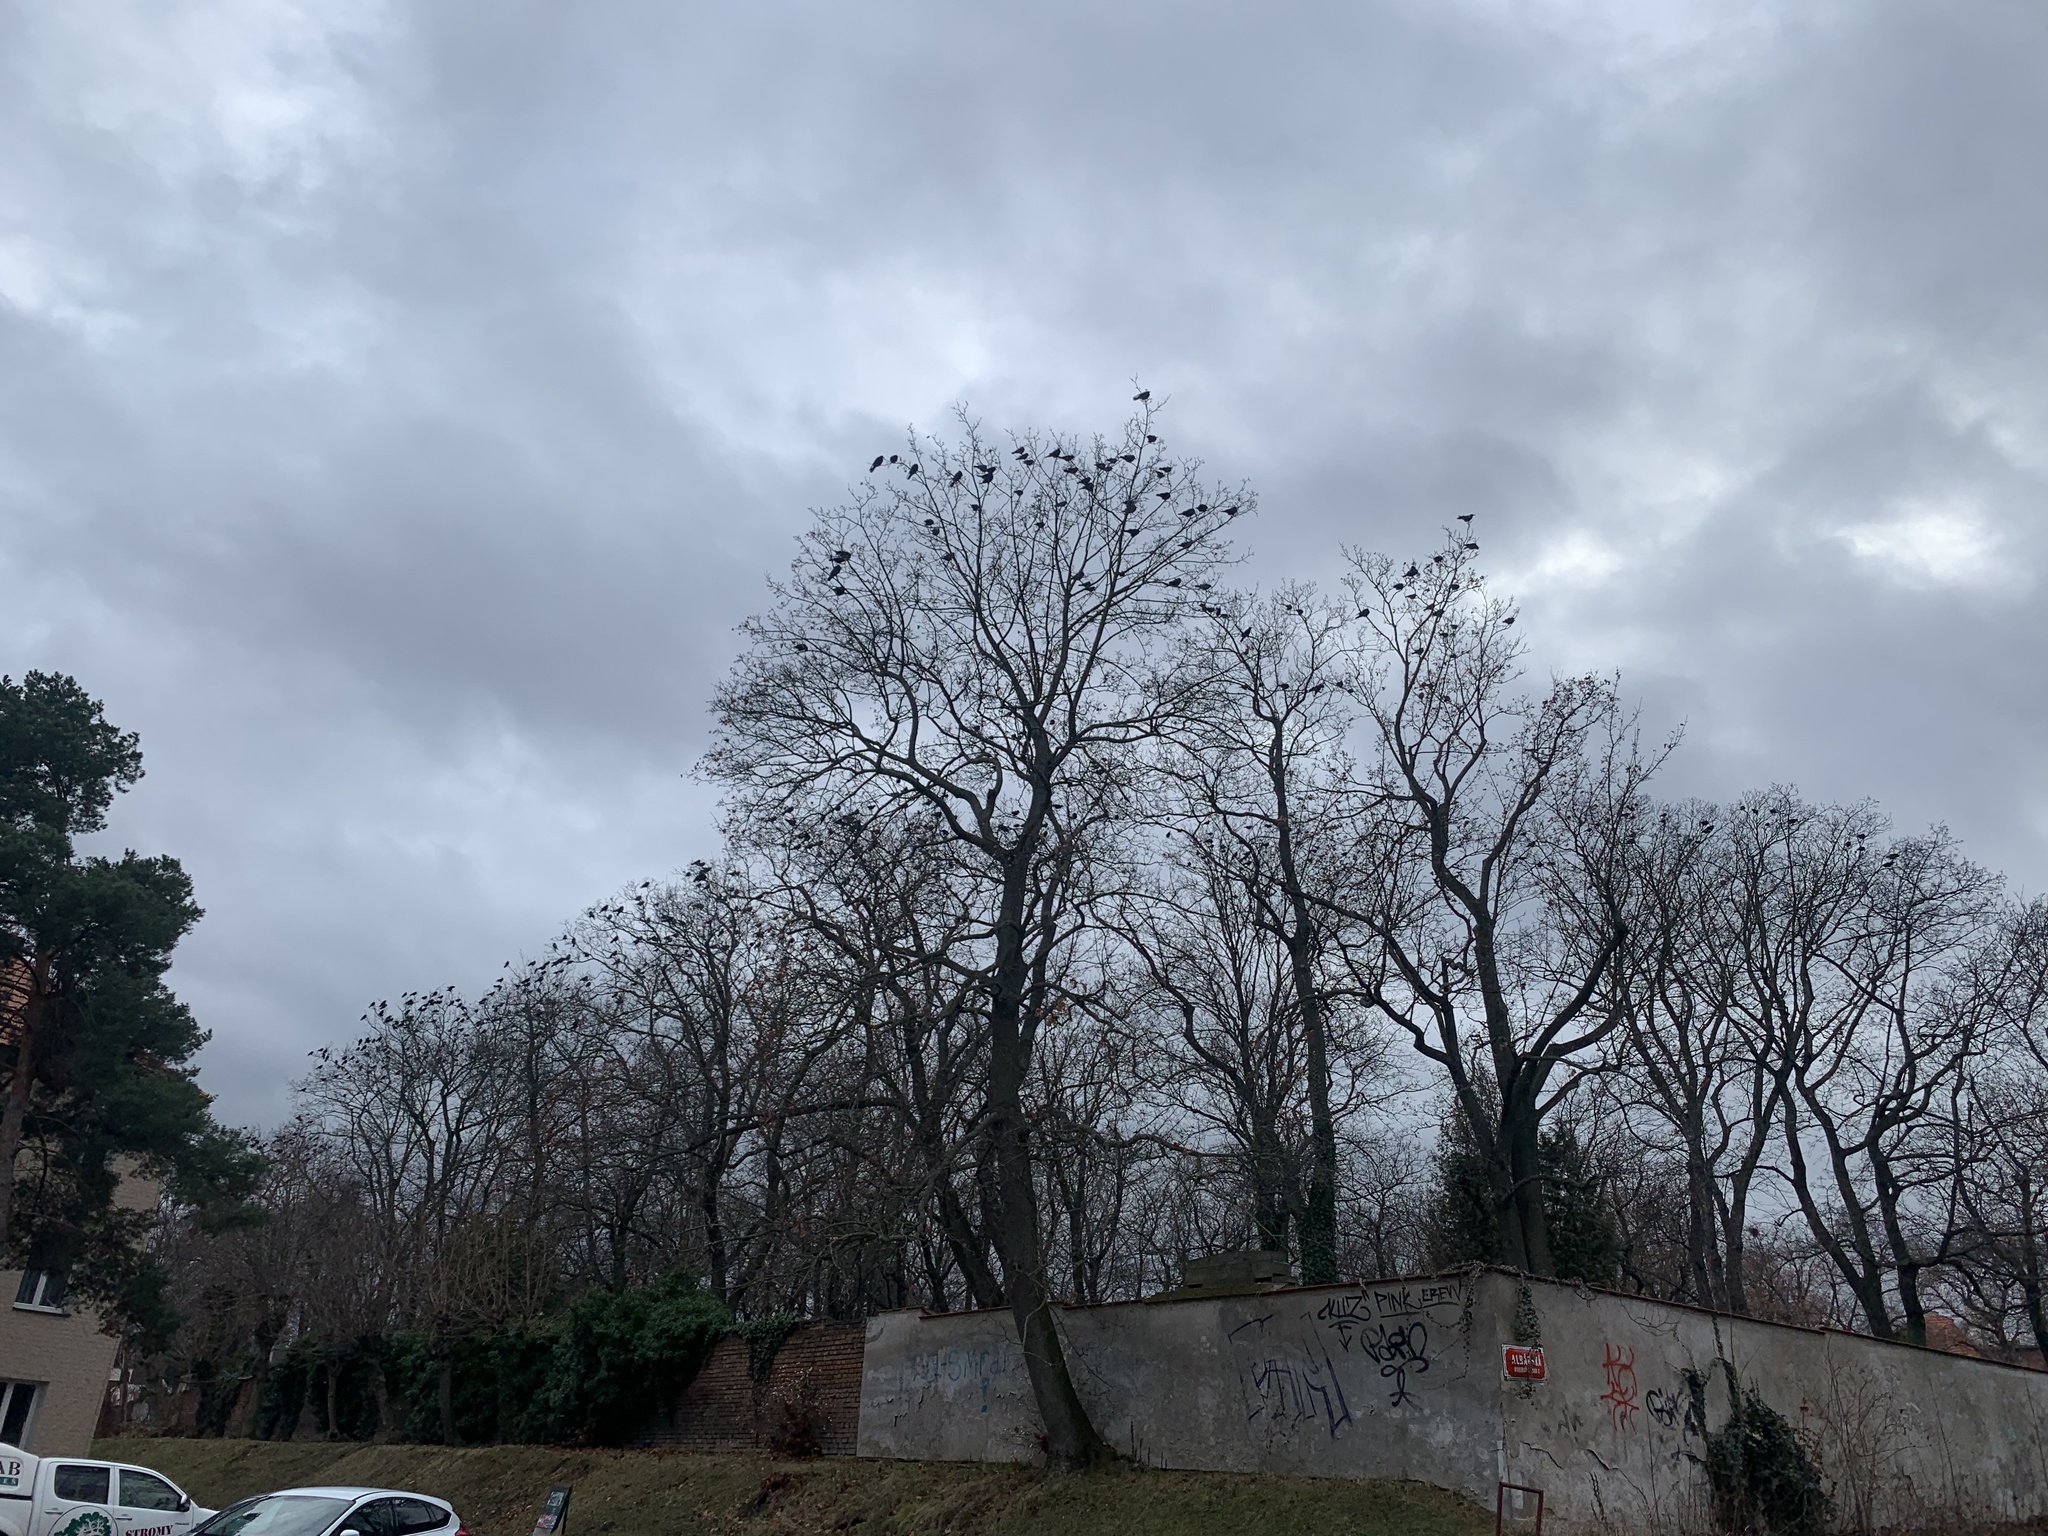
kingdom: Animalia
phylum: Chordata
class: Aves
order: Passeriformes
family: Corvidae
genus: Corvus
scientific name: Corvus frugilegus
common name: Rook
